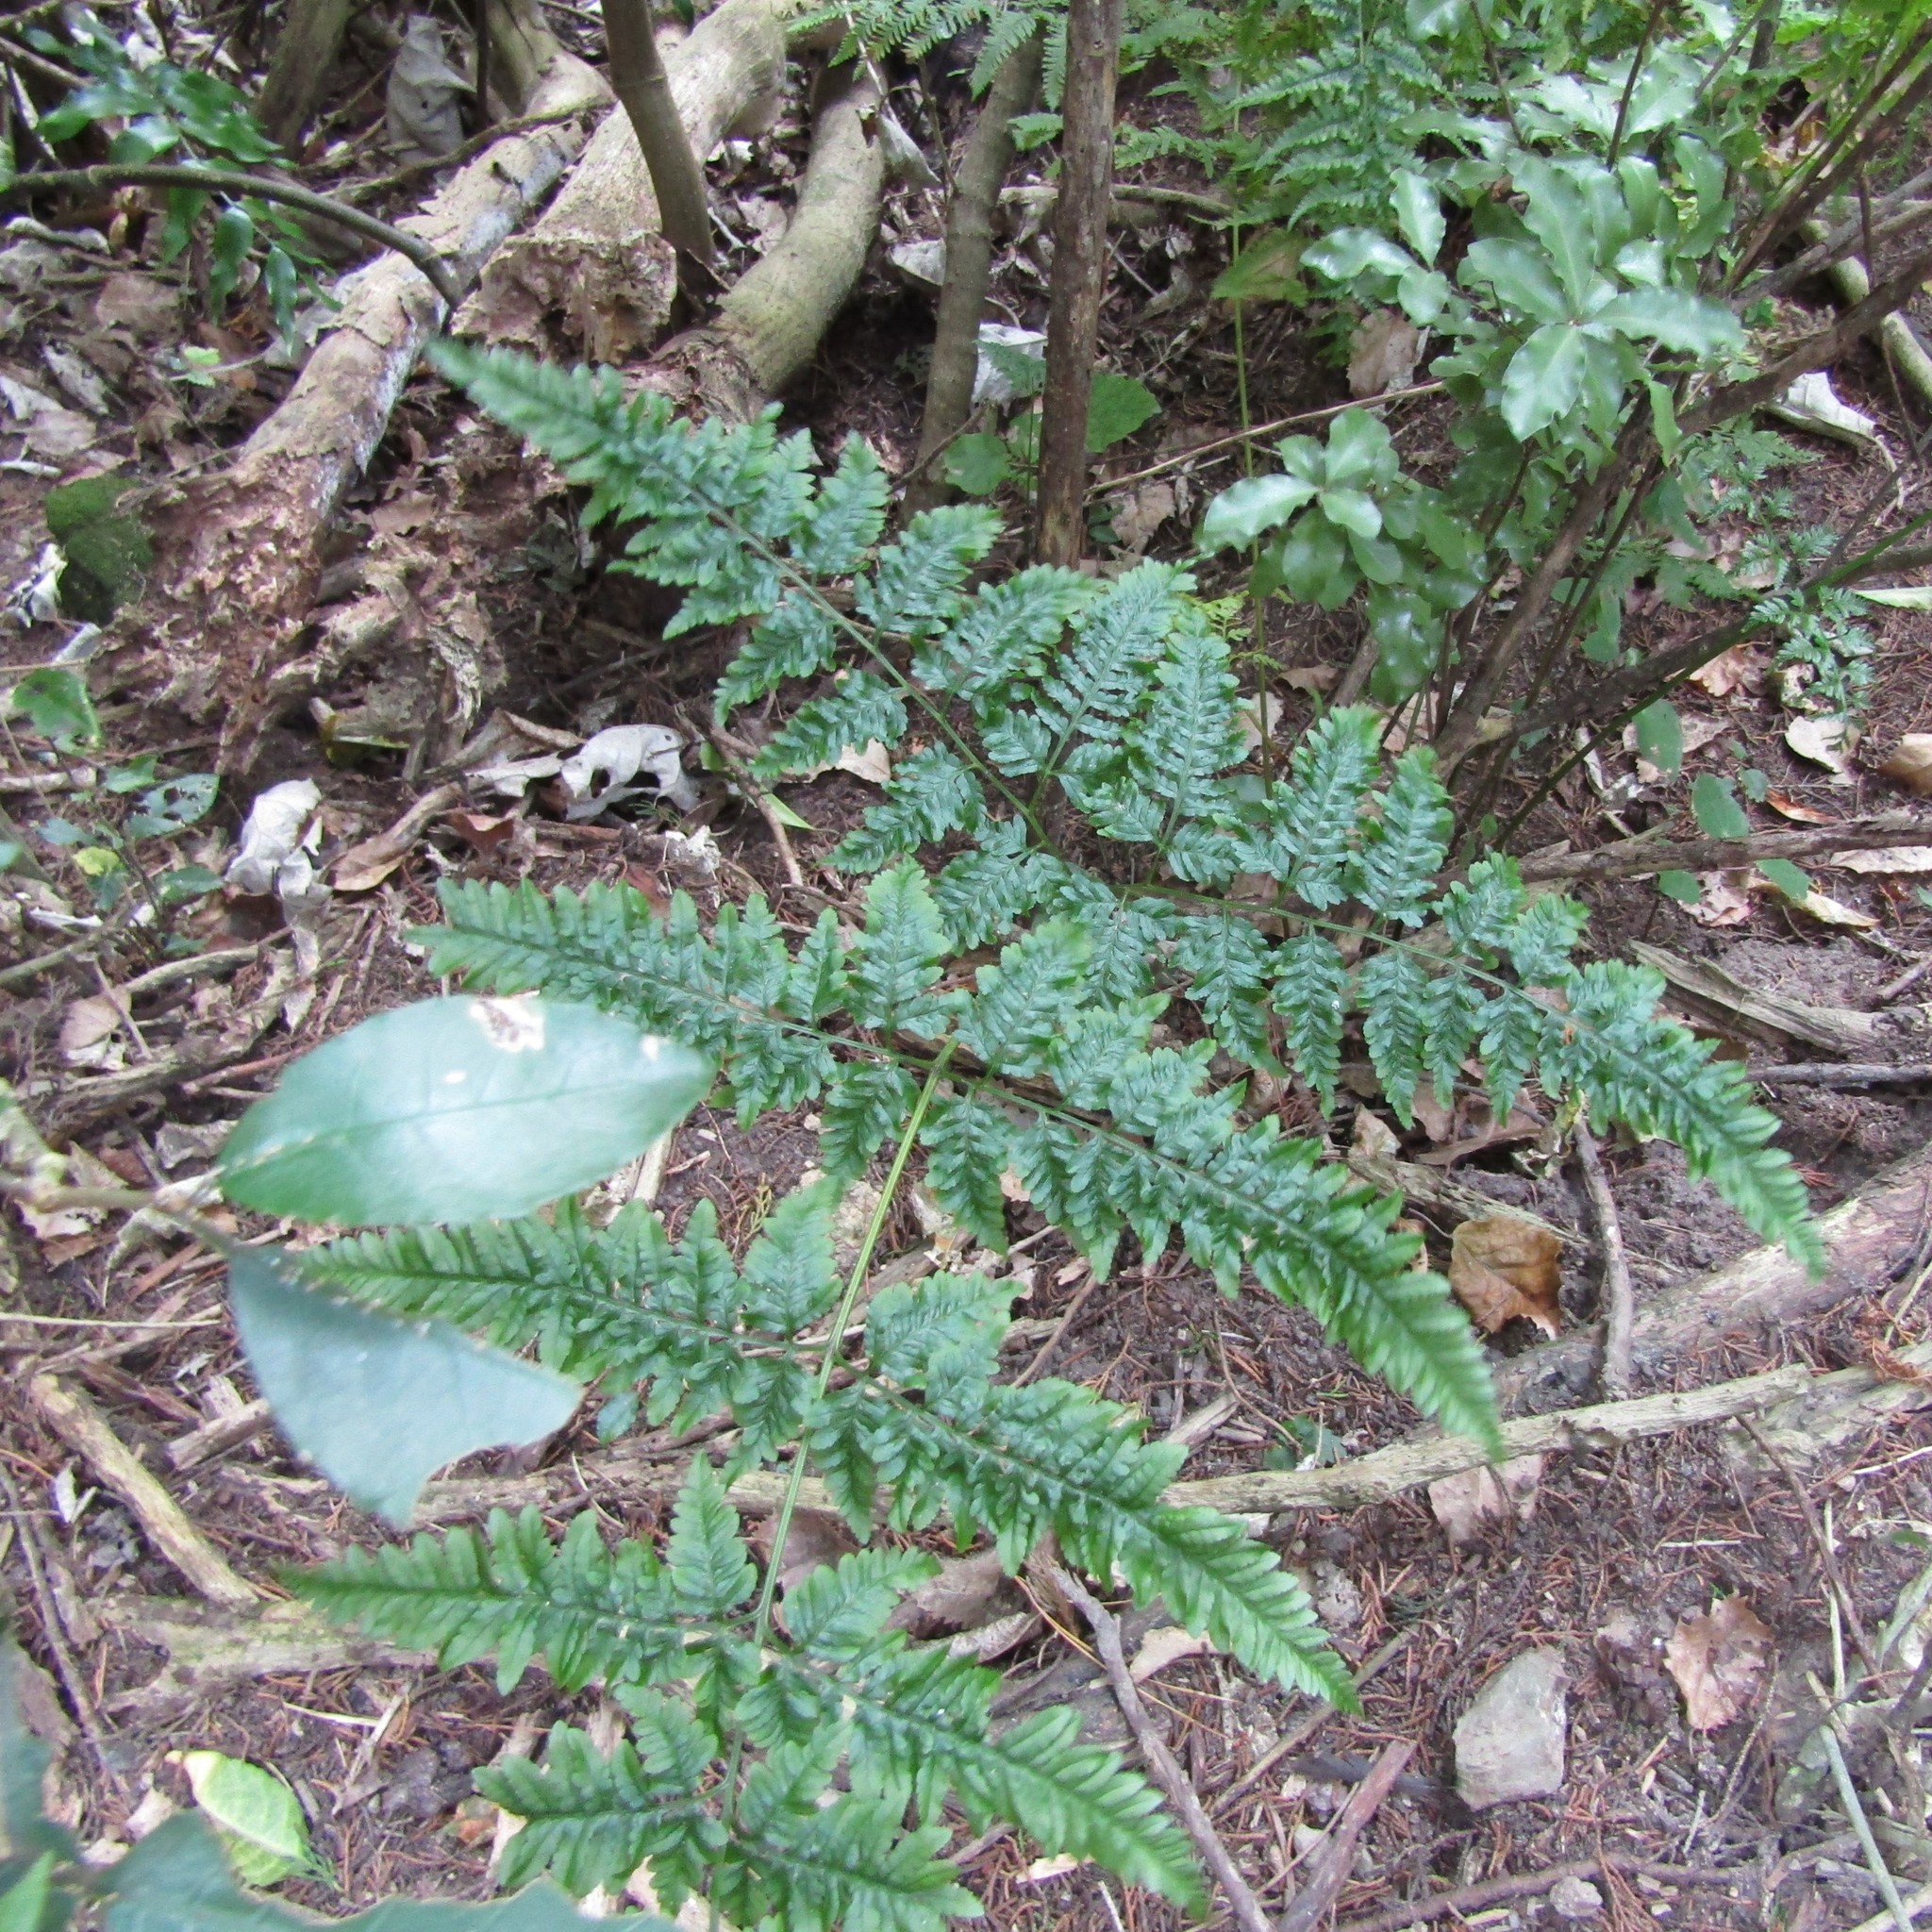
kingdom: Plantae
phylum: Tracheophyta
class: Polypodiopsida
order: Polypodiales
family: Pteridaceae
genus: Pteris
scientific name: Pteris tremula
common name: Australian brake
